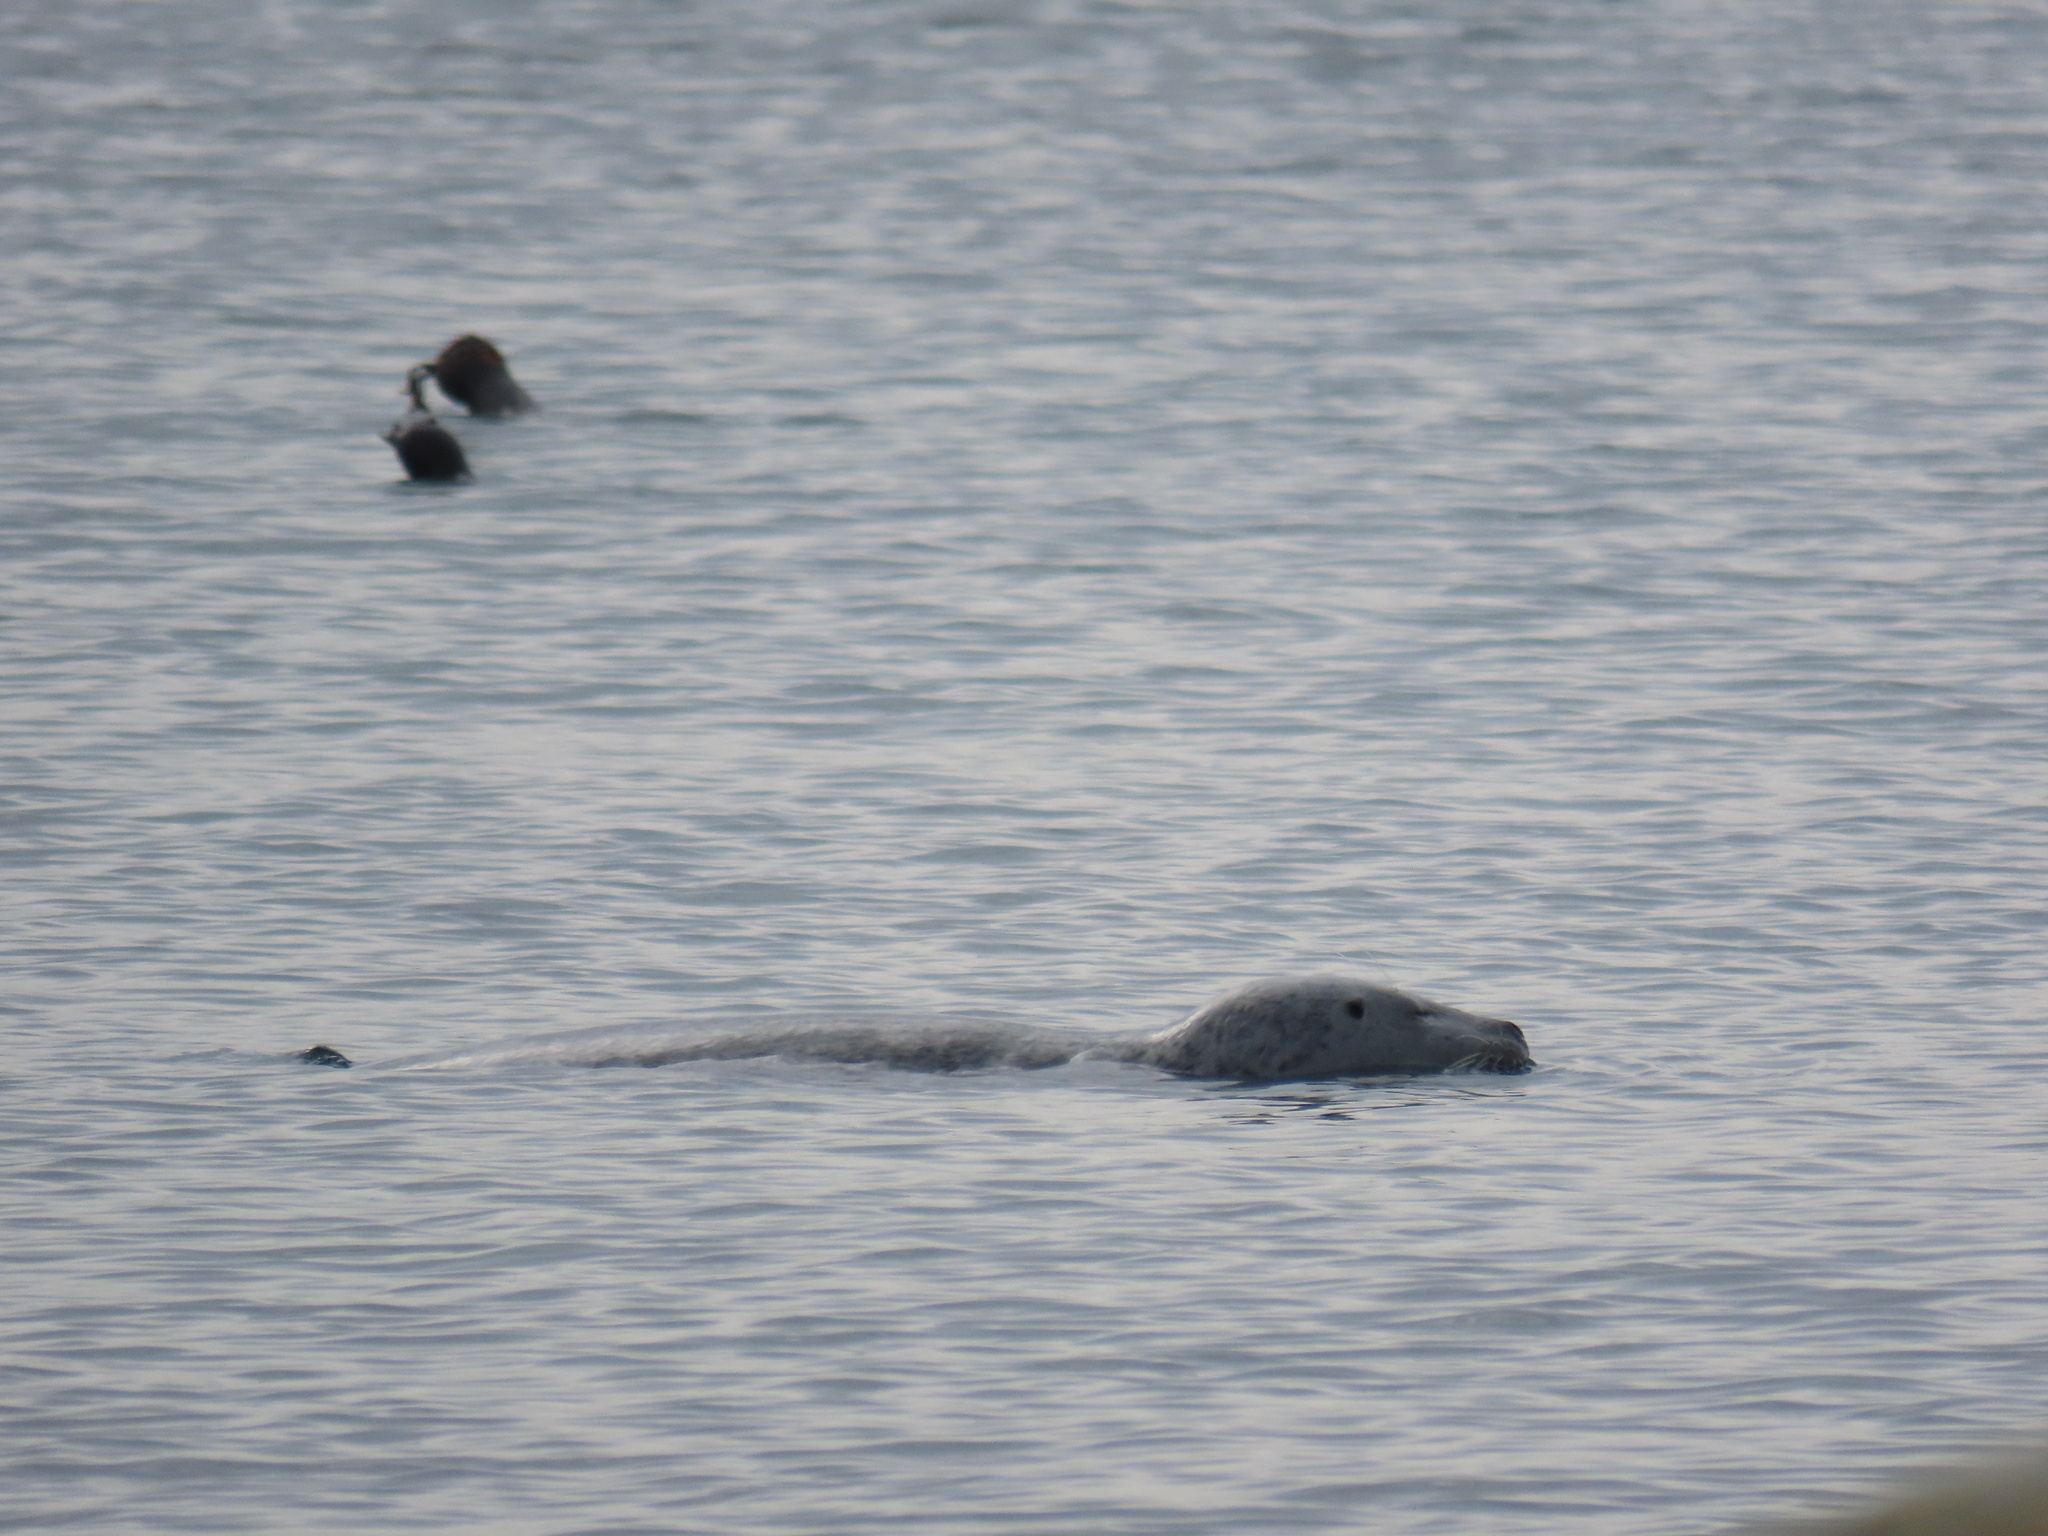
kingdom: Animalia
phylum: Chordata
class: Mammalia
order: Carnivora
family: Phocidae
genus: Phoca
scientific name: Phoca vitulina
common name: Harbor seal
